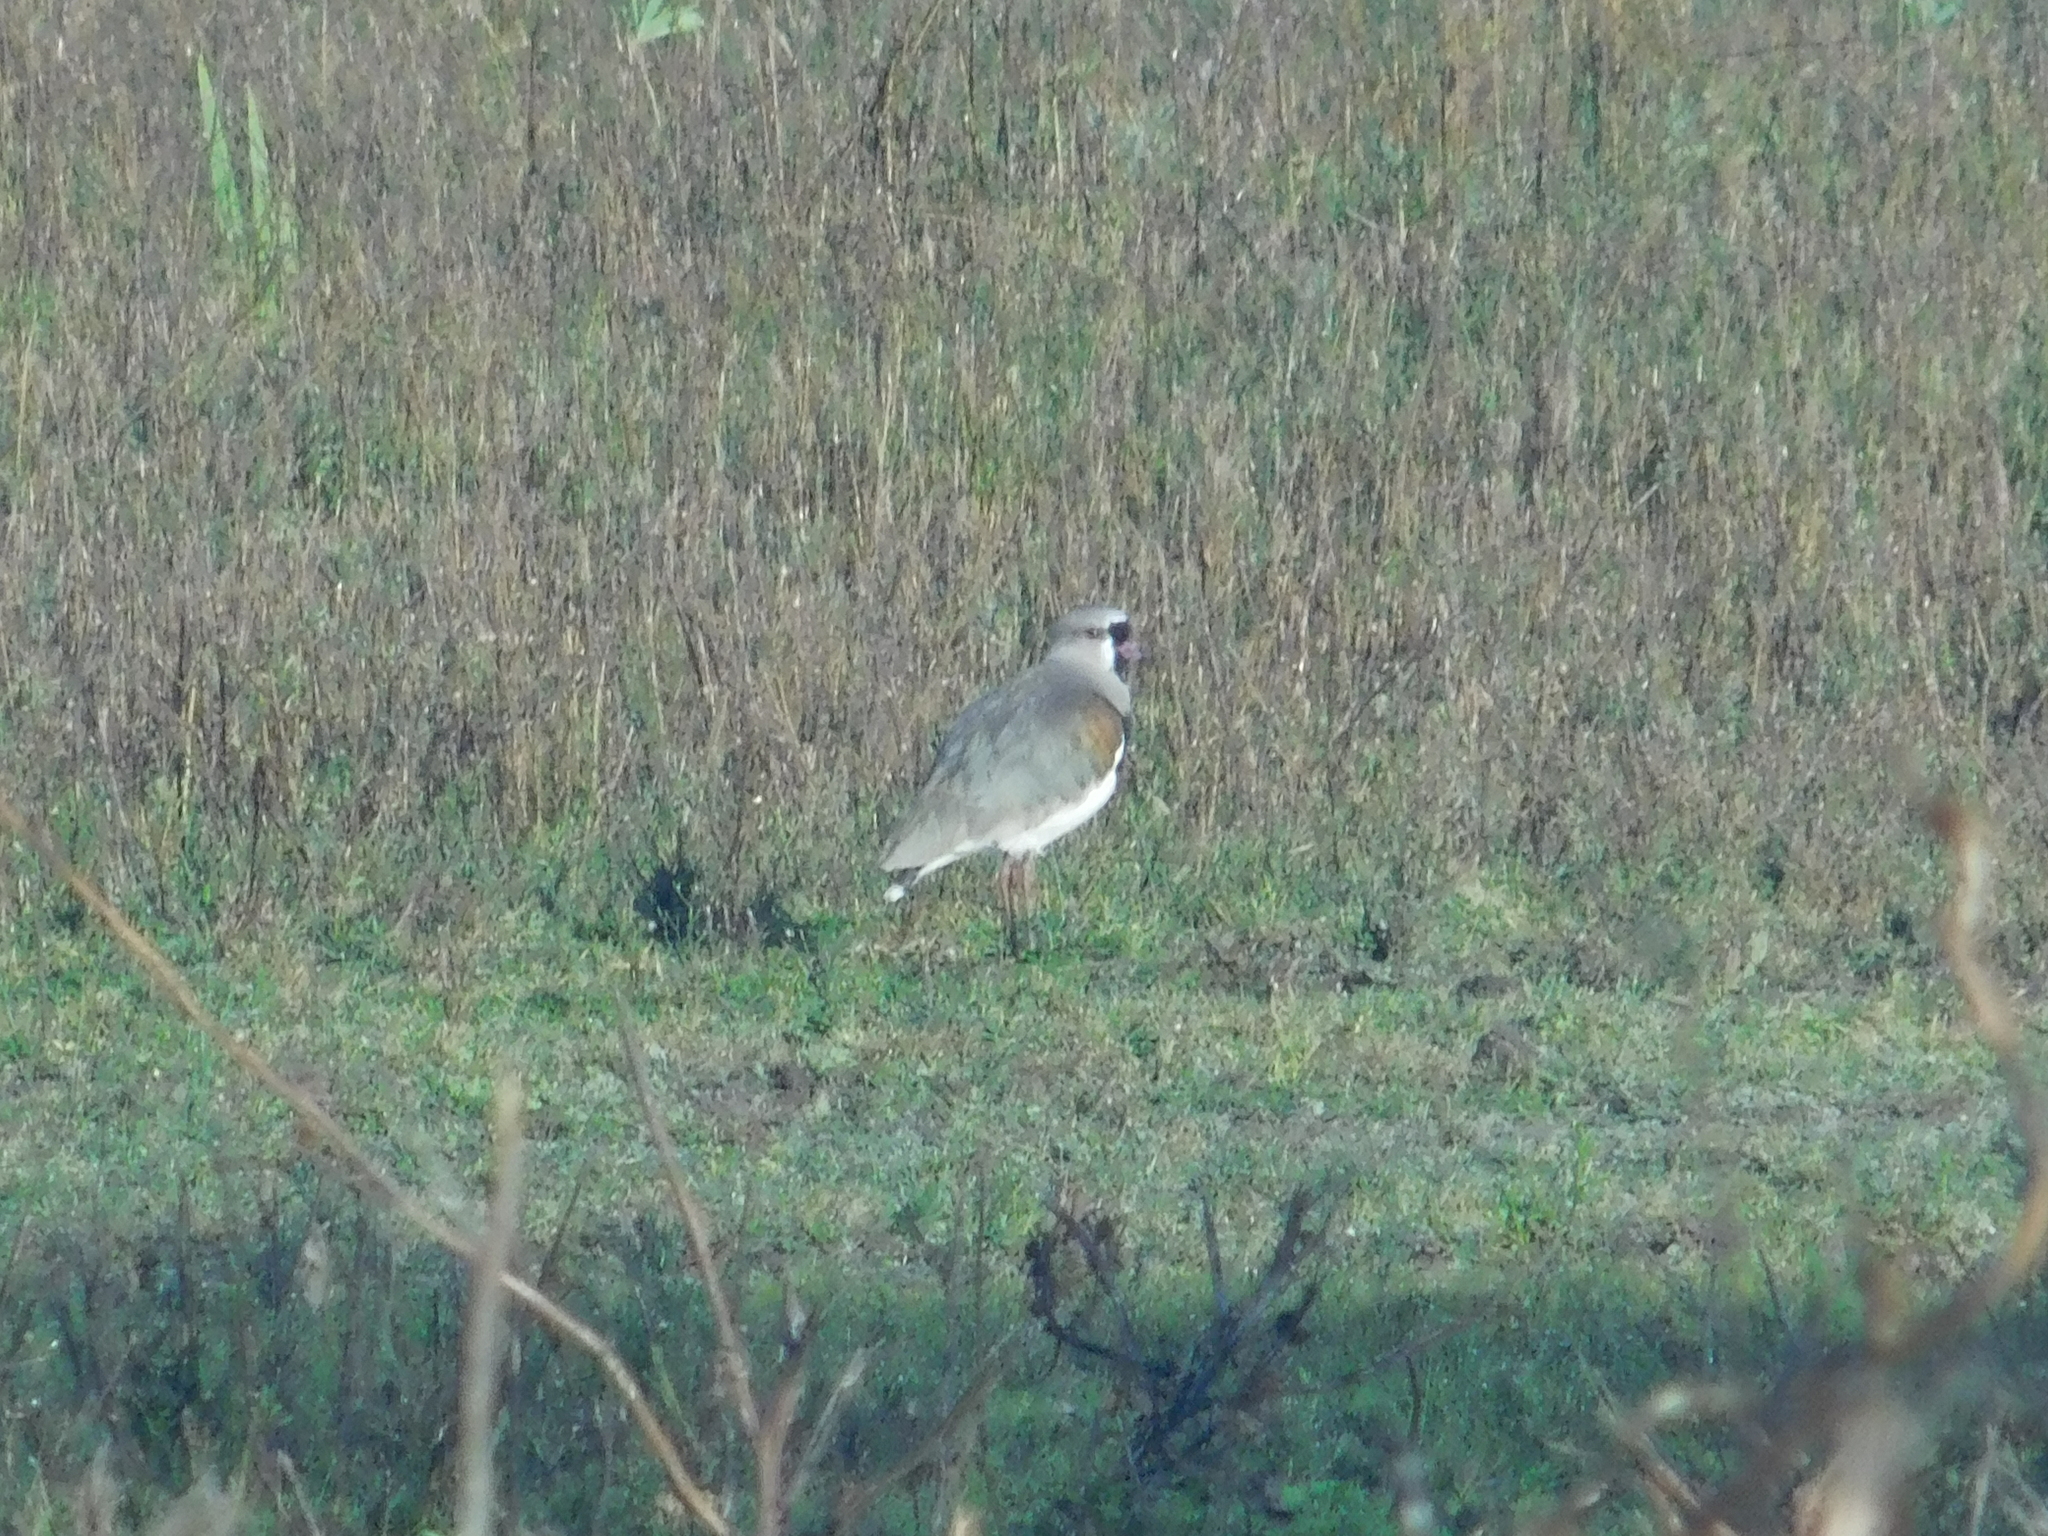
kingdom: Animalia
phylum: Chordata
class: Aves
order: Charadriiformes
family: Charadriidae
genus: Vanellus
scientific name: Vanellus chilensis
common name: Southern lapwing
